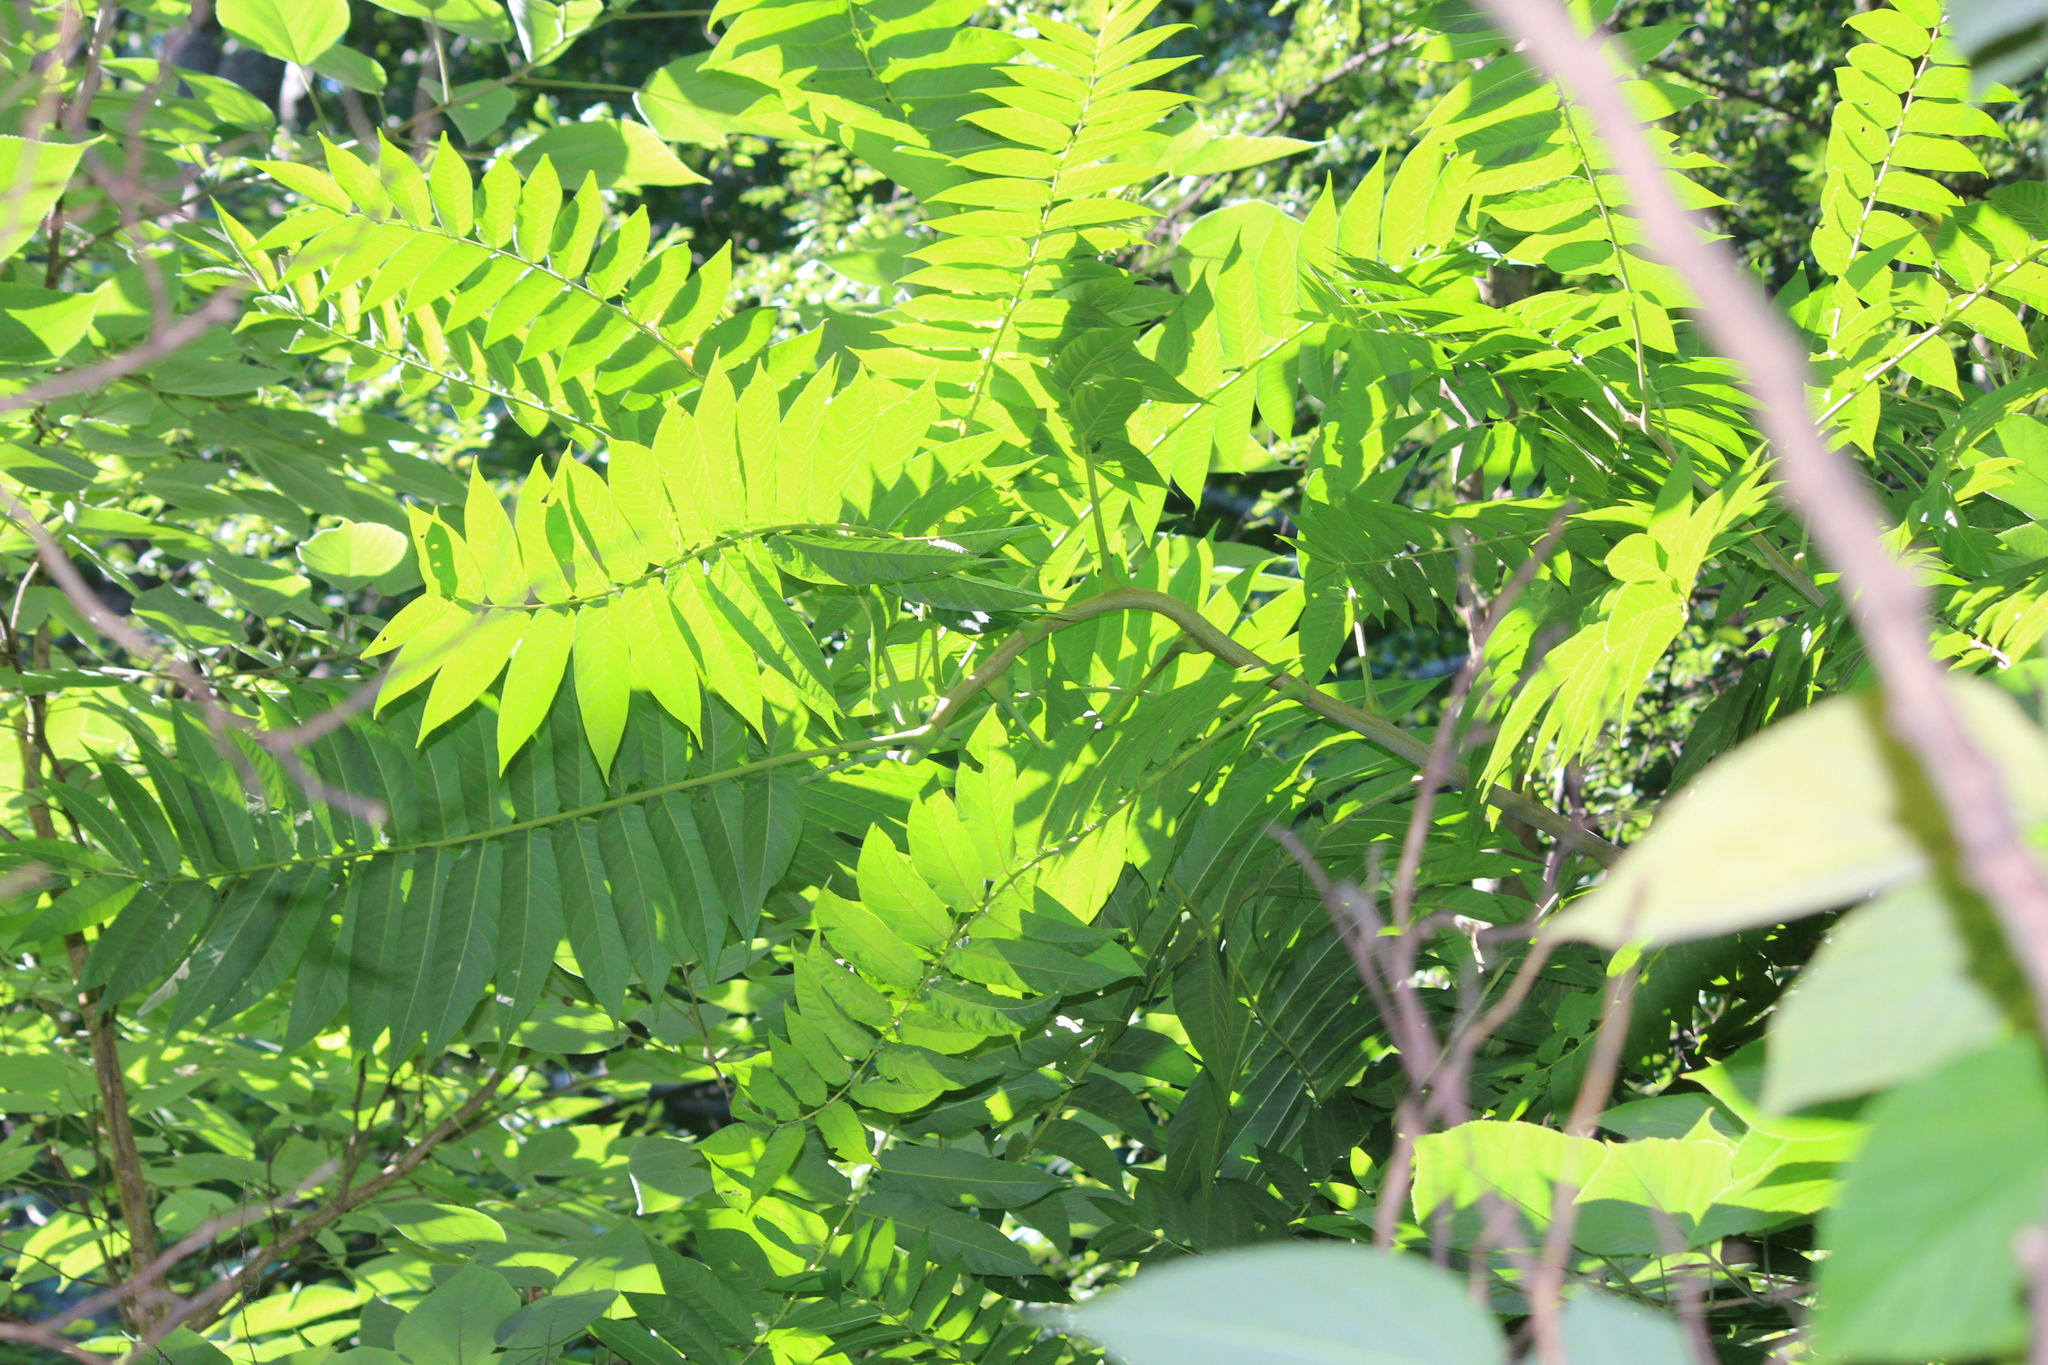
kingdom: Plantae
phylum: Tracheophyta
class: Magnoliopsida
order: Sapindales
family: Simaroubaceae
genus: Ailanthus
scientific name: Ailanthus altissima
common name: Tree-of-heaven
